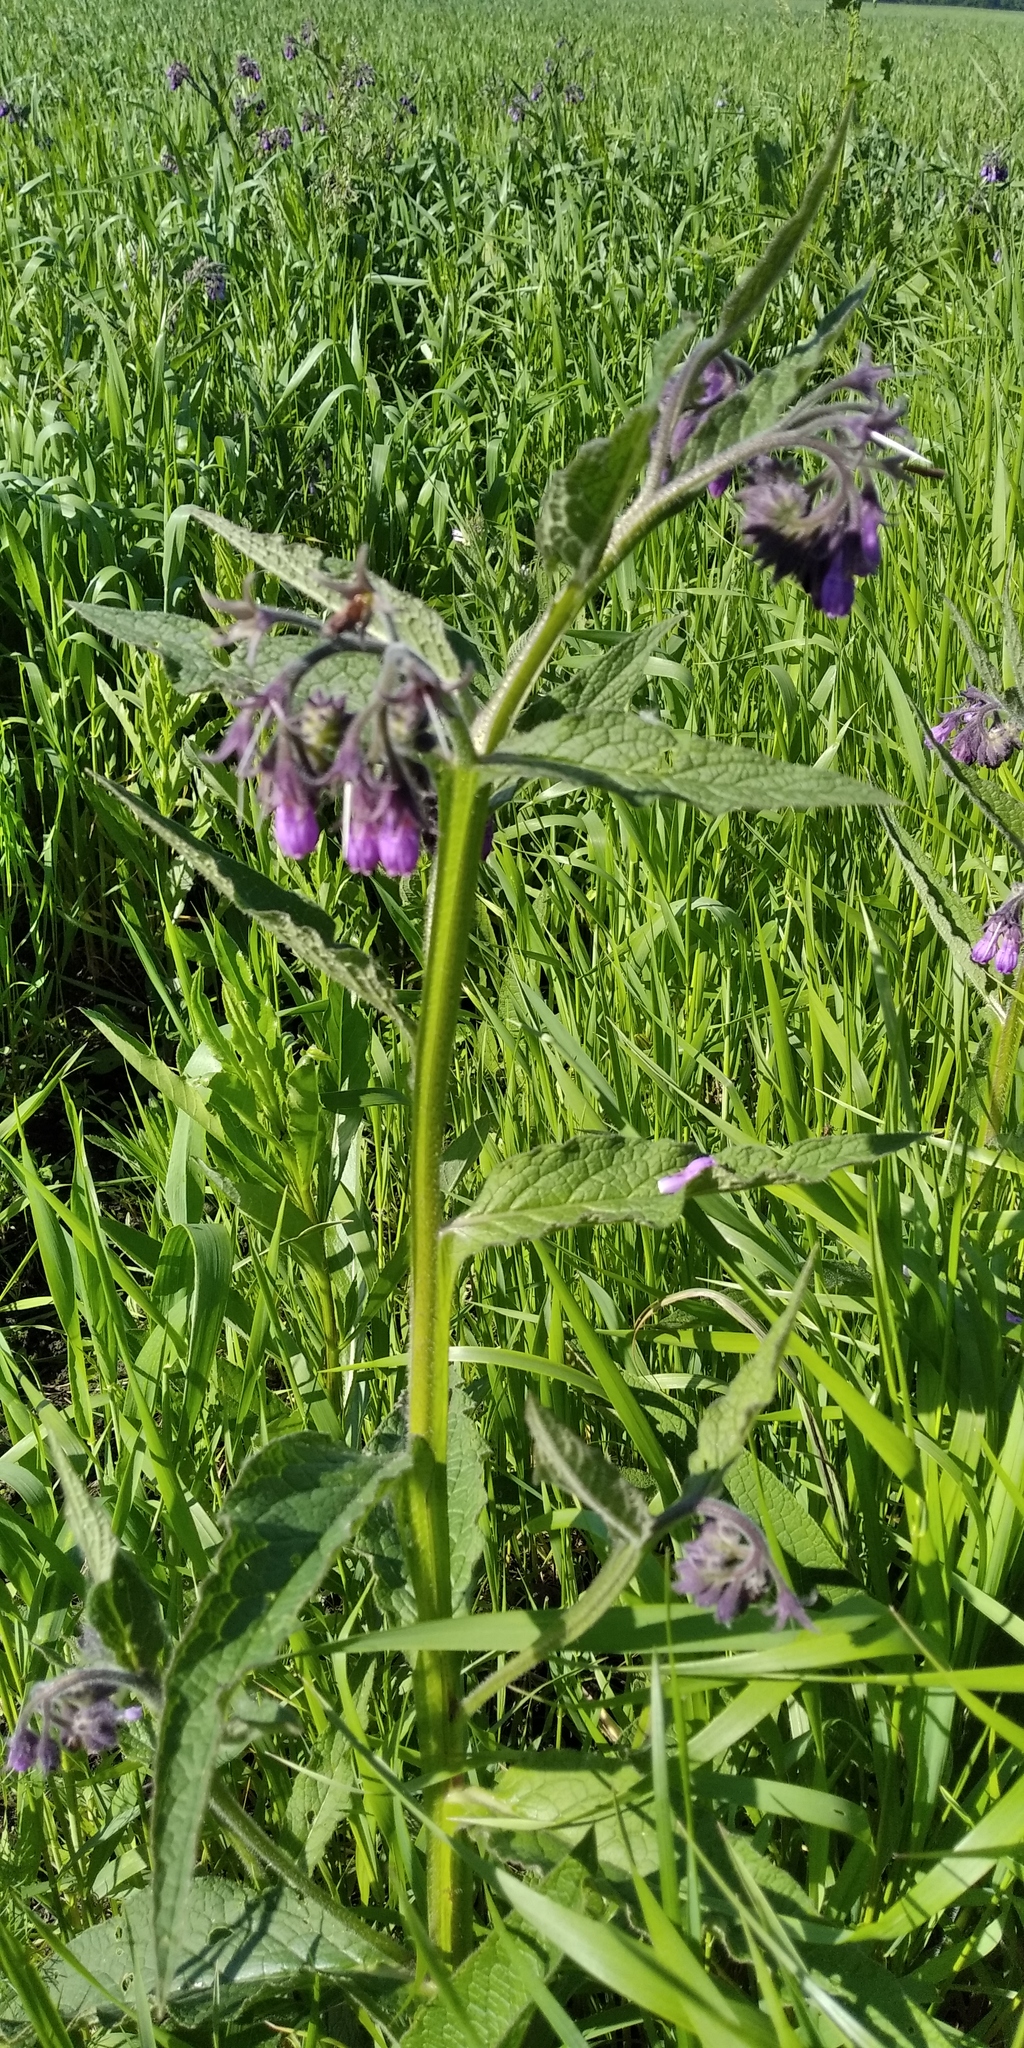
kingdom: Plantae
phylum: Tracheophyta
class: Magnoliopsida
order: Boraginales
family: Boraginaceae
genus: Symphytum
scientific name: Symphytum officinale
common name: Common comfrey
